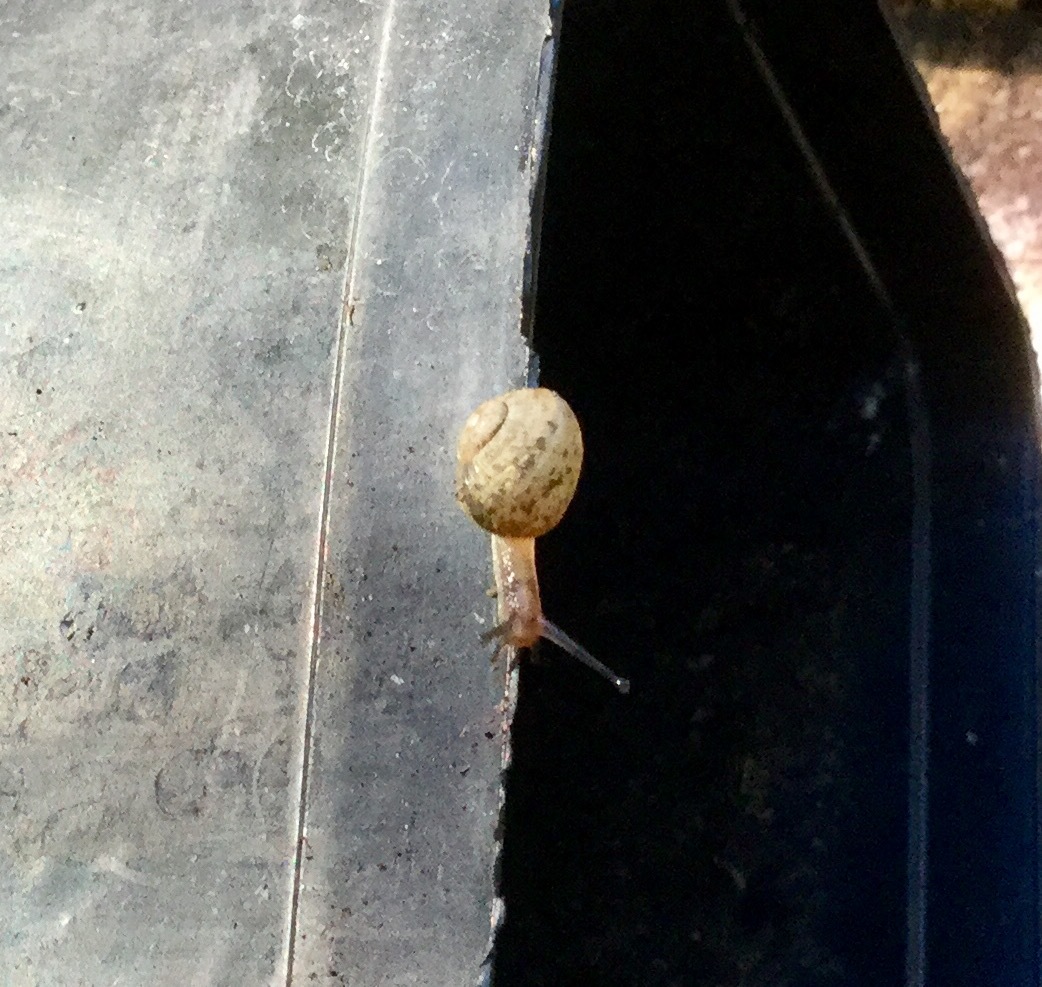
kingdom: Animalia
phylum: Mollusca
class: Gastropoda
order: Stylommatophora
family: Helicidae
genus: Cornu
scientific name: Cornu aspersum
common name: Brown garden snail
